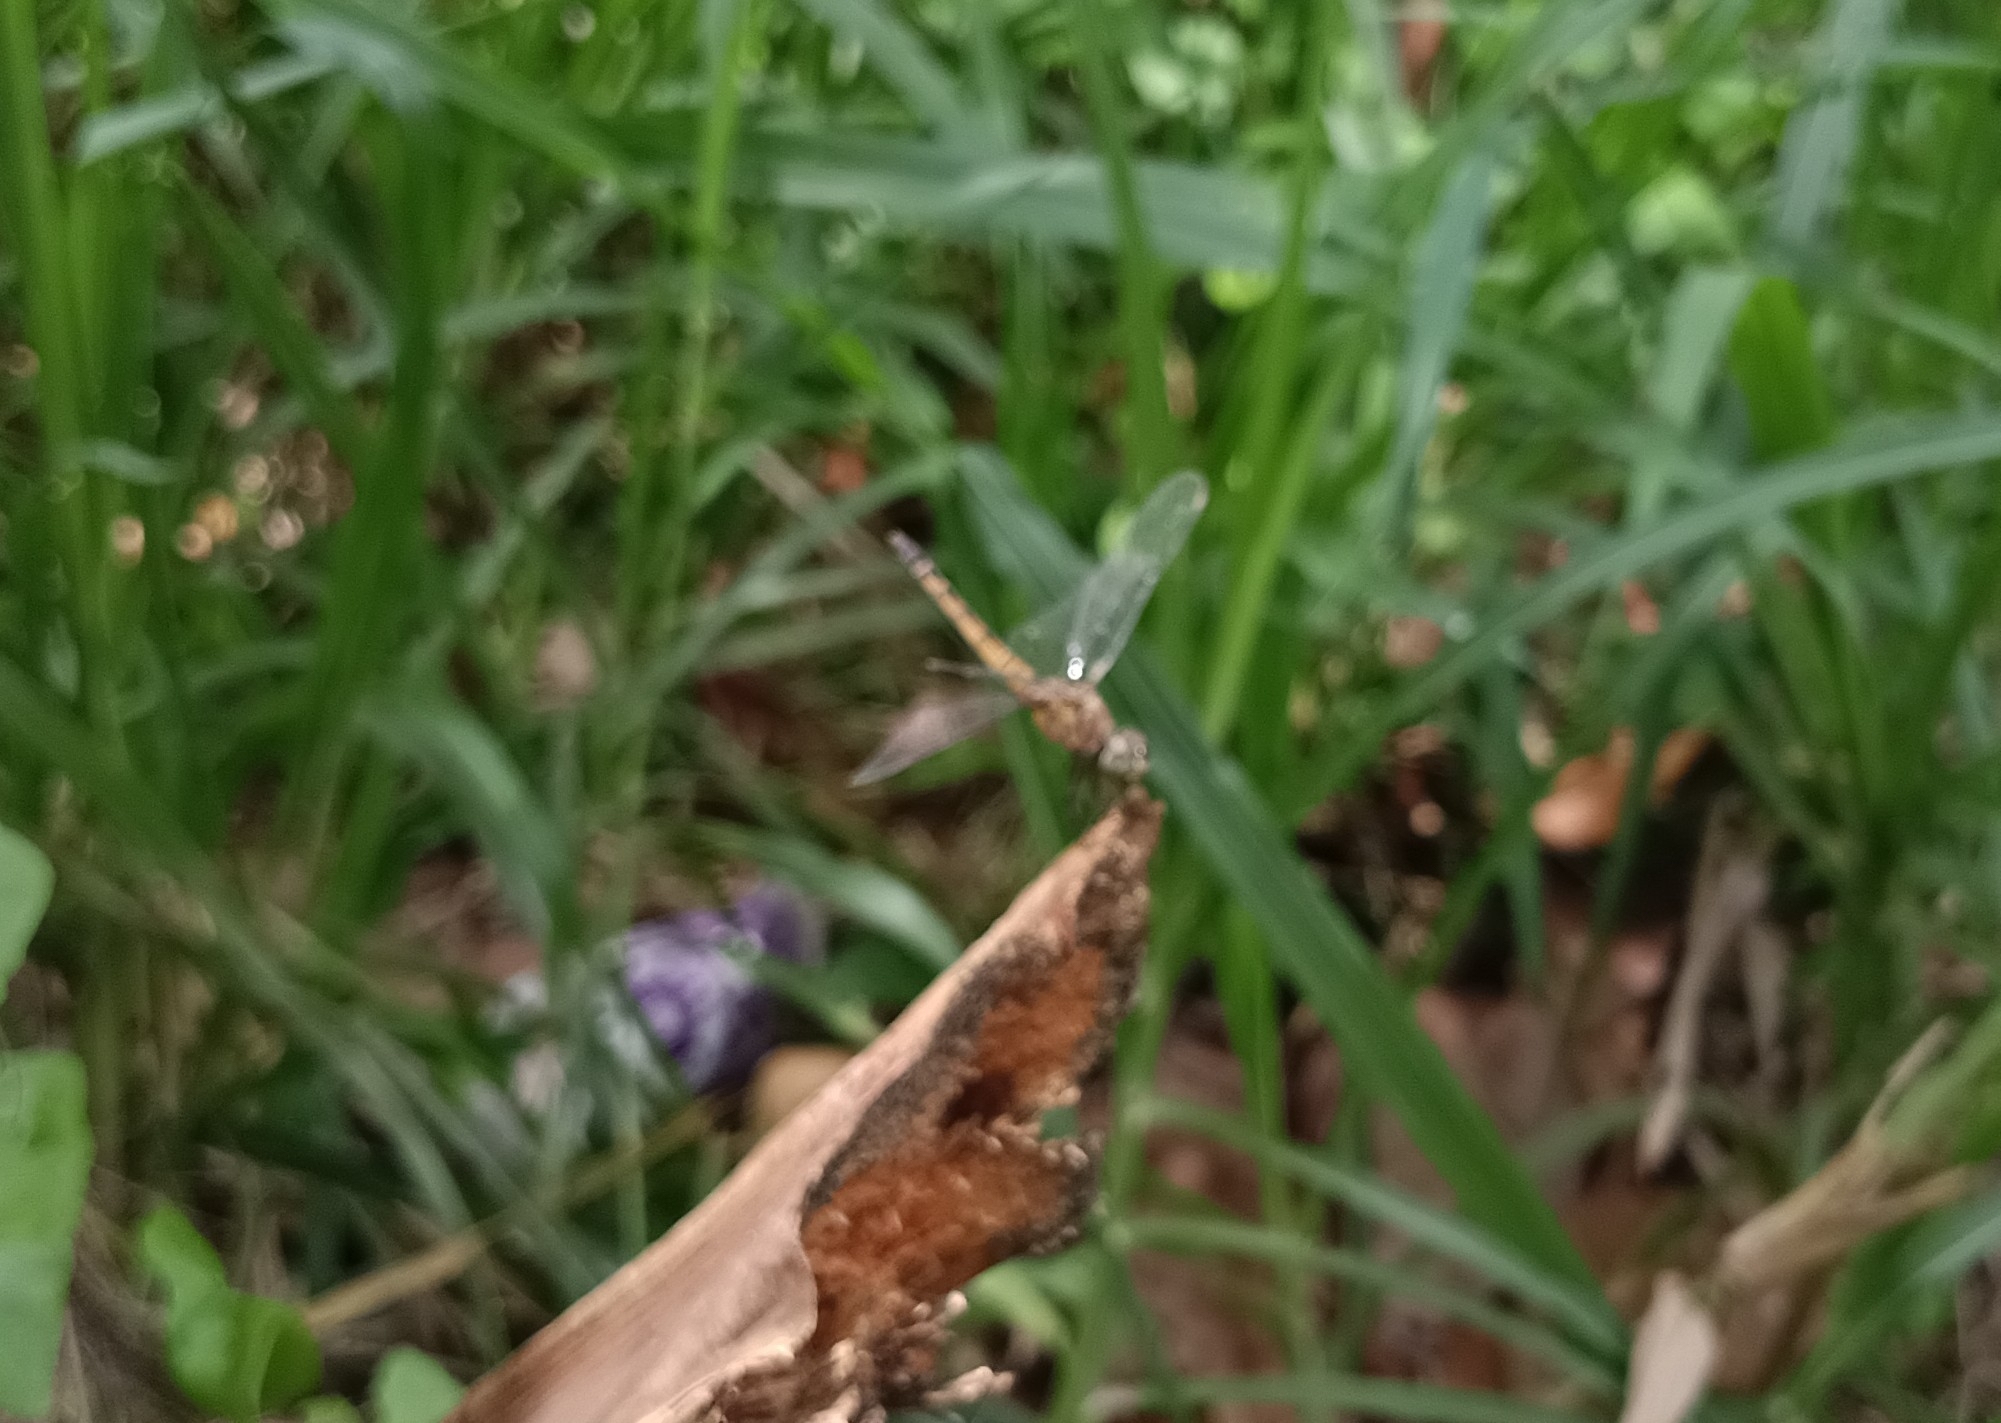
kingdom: Animalia
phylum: Arthropoda
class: Insecta
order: Odonata
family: Libellulidae
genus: Brachydiplax
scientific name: Brachydiplax chalybea
